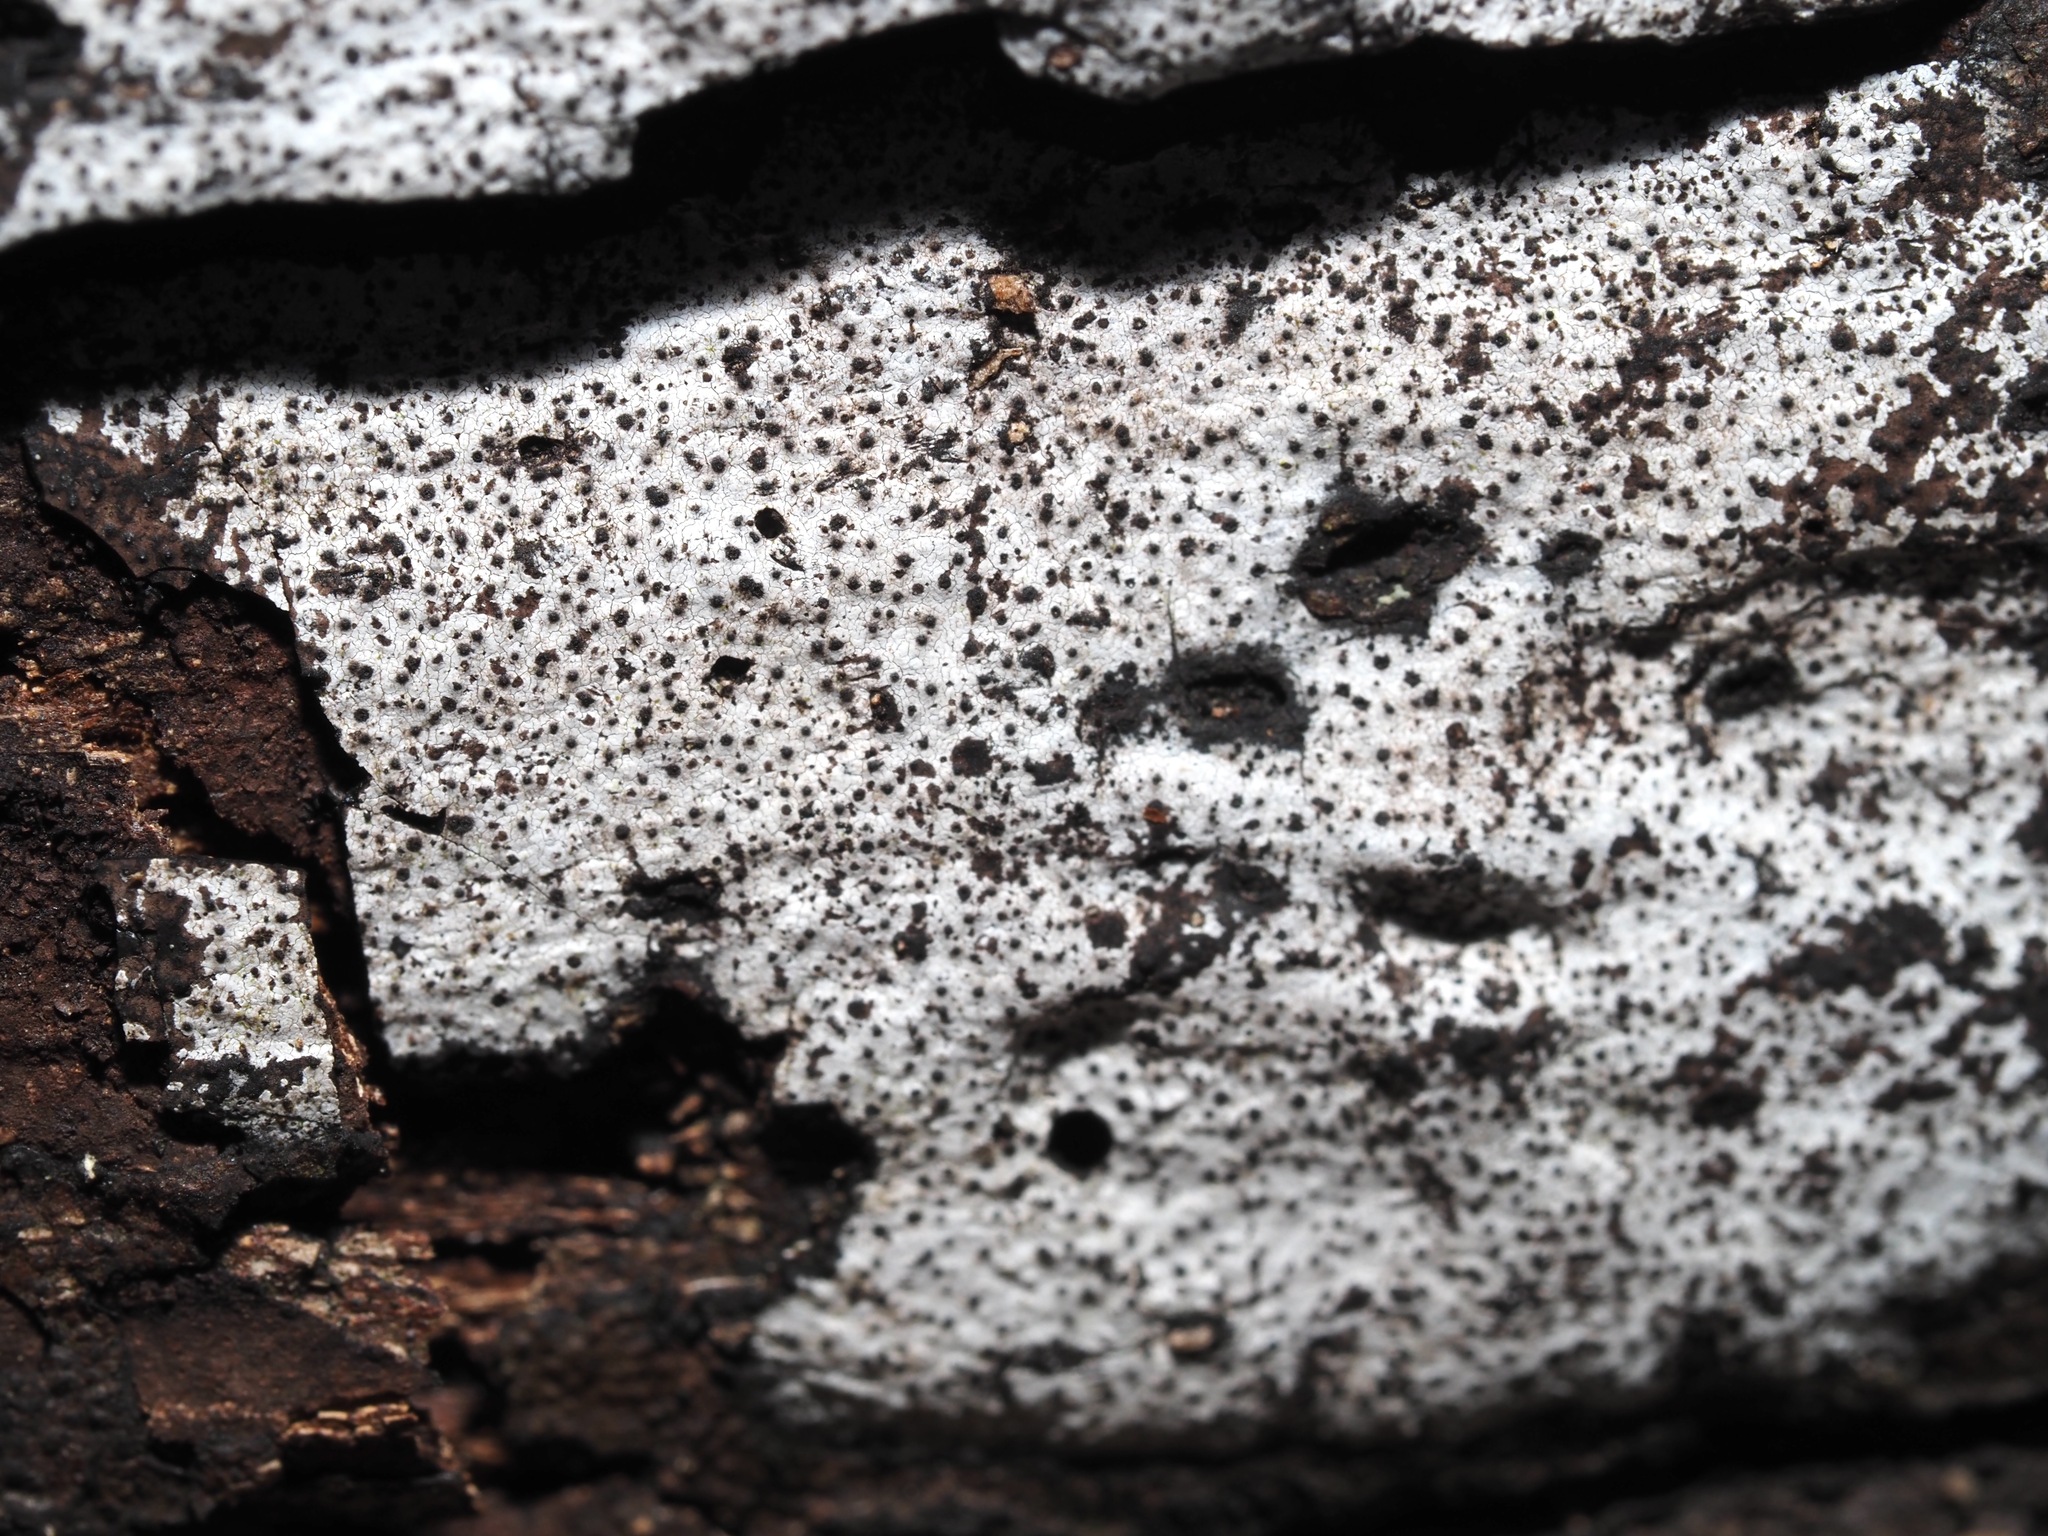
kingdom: Fungi
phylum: Ascomycota
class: Sordariomycetes
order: Xylariales
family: Graphostromataceae
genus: Biscogniauxia
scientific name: Biscogniauxia atropunctata
